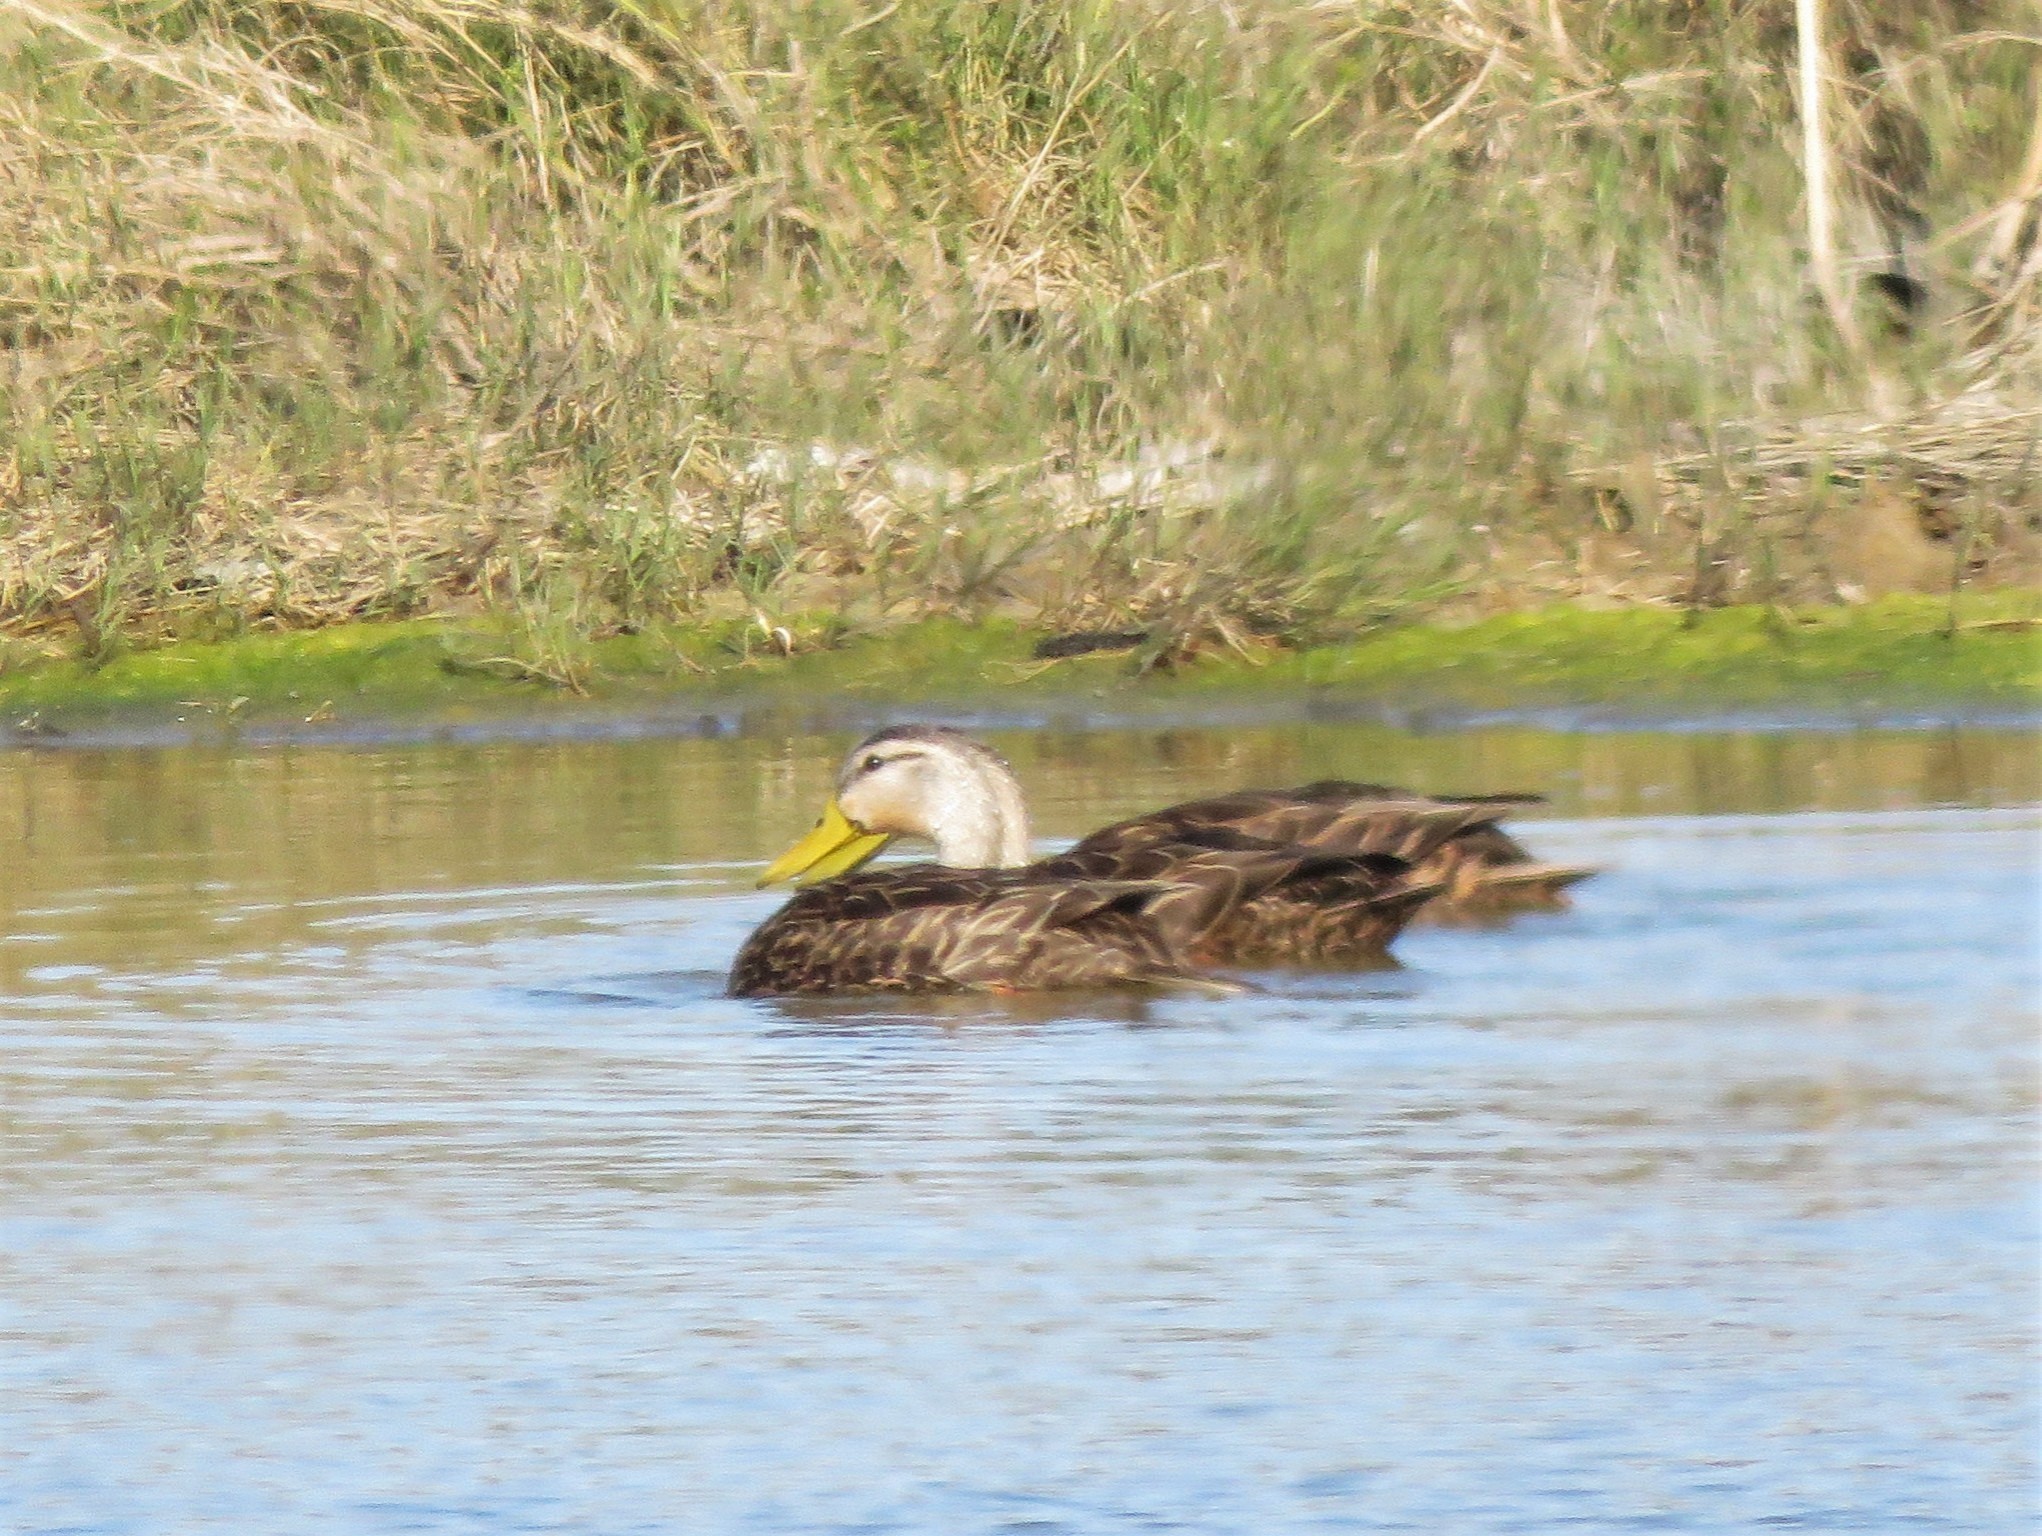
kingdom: Animalia
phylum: Chordata
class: Aves
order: Anseriformes
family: Anatidae
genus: Anas
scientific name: Anas fulvigula
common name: Mottled duck
